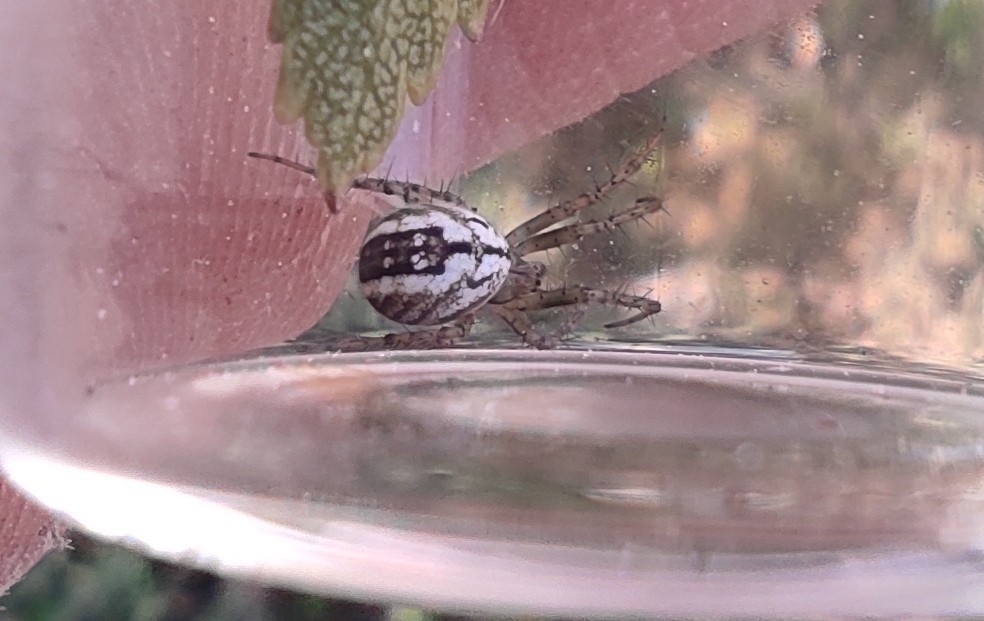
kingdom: Animalia
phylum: Arthropoda
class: Arachnida
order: Araneae
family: Araneidae
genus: Mangora
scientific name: Mangora acalypha
